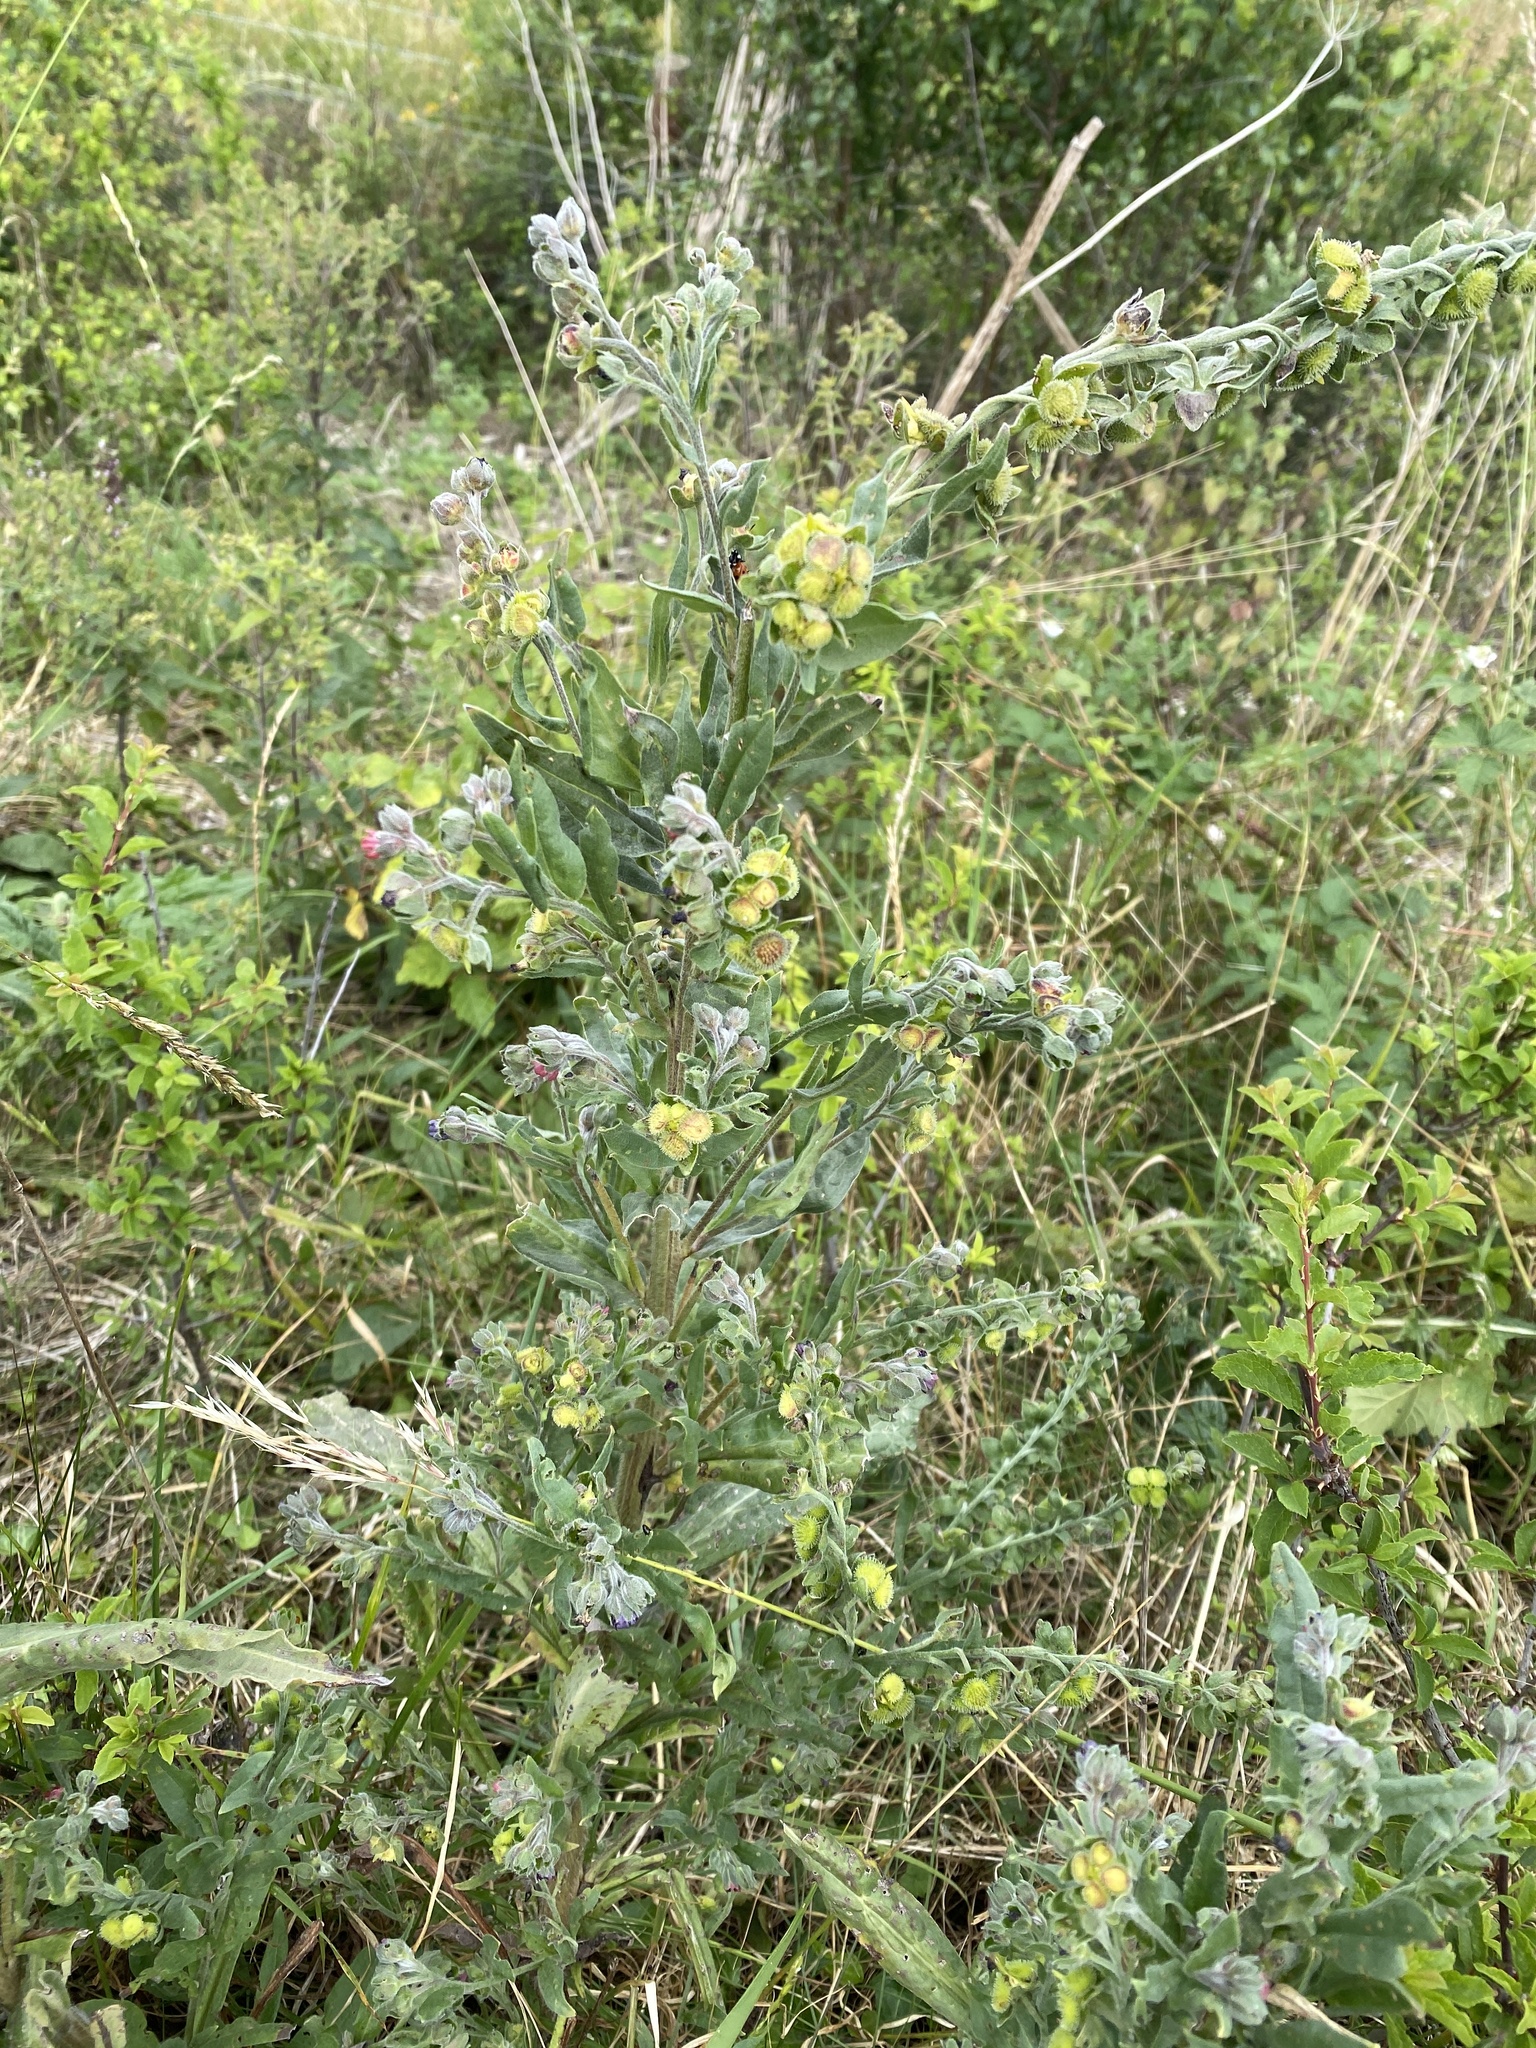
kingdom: Plantae
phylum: Tracheophyta
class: Magnoliopsida
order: Boraginales
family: Boraginaceae
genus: Cynoglossum
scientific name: Cynoglossum officinale
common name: Hound's-tongue
